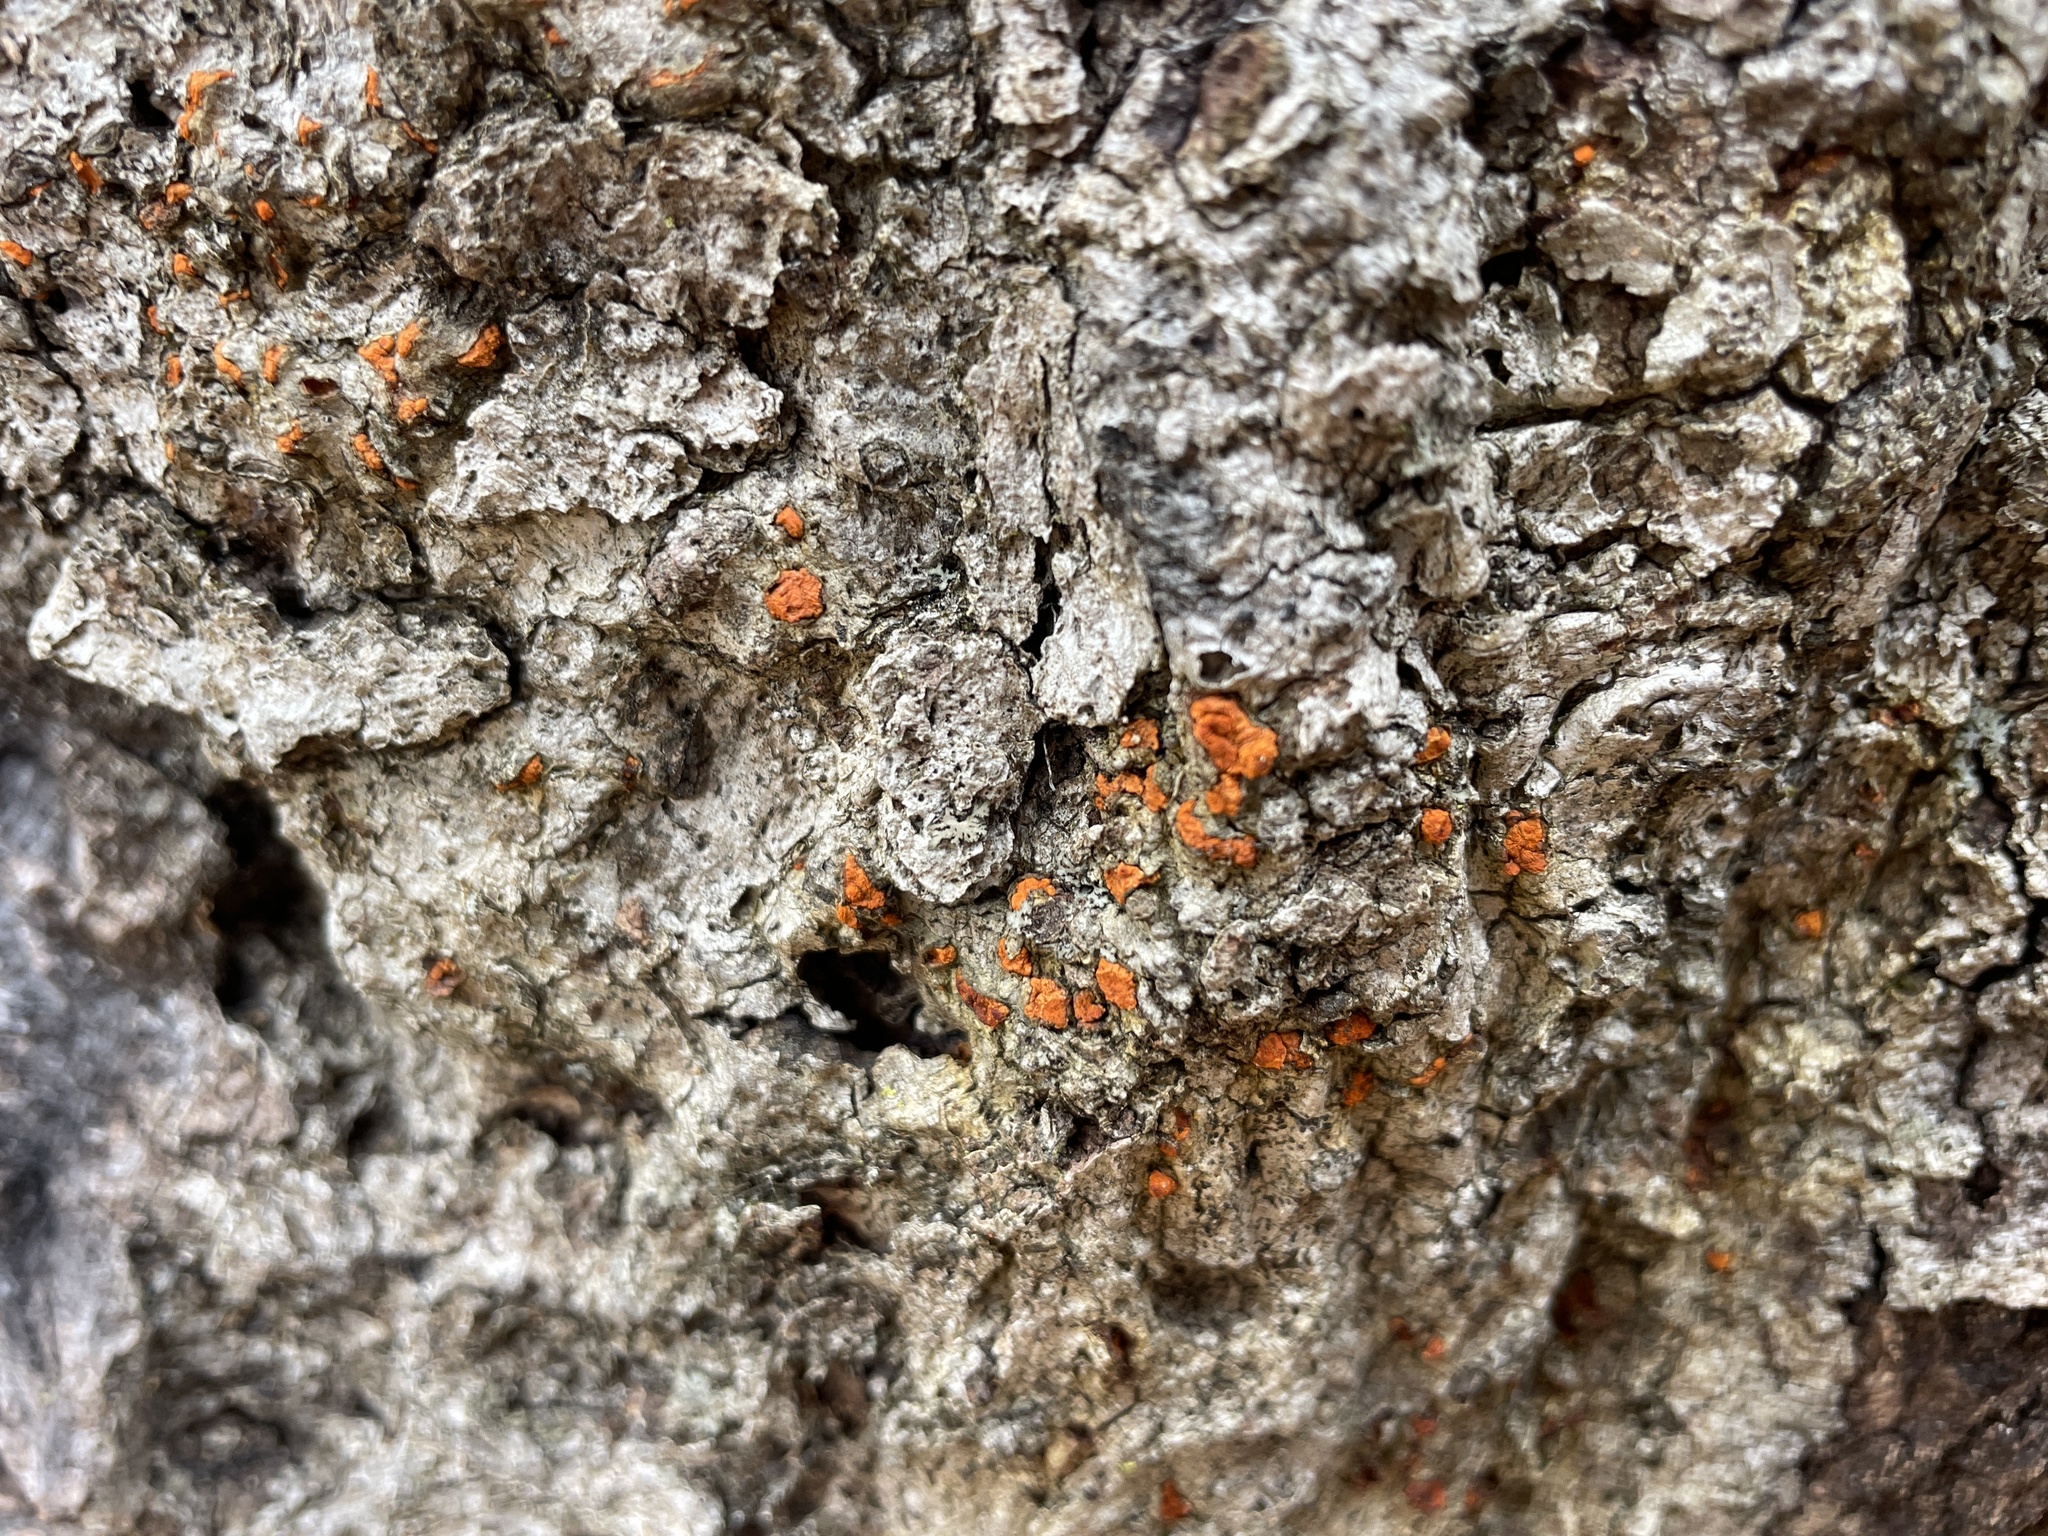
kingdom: Fungi
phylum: Ascomycota
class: Sordariomycetes
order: Diaporthales
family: Cryphonectriaceae
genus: Amphilogia
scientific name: Amphilogia gyrosa
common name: Orange hobnail canker
